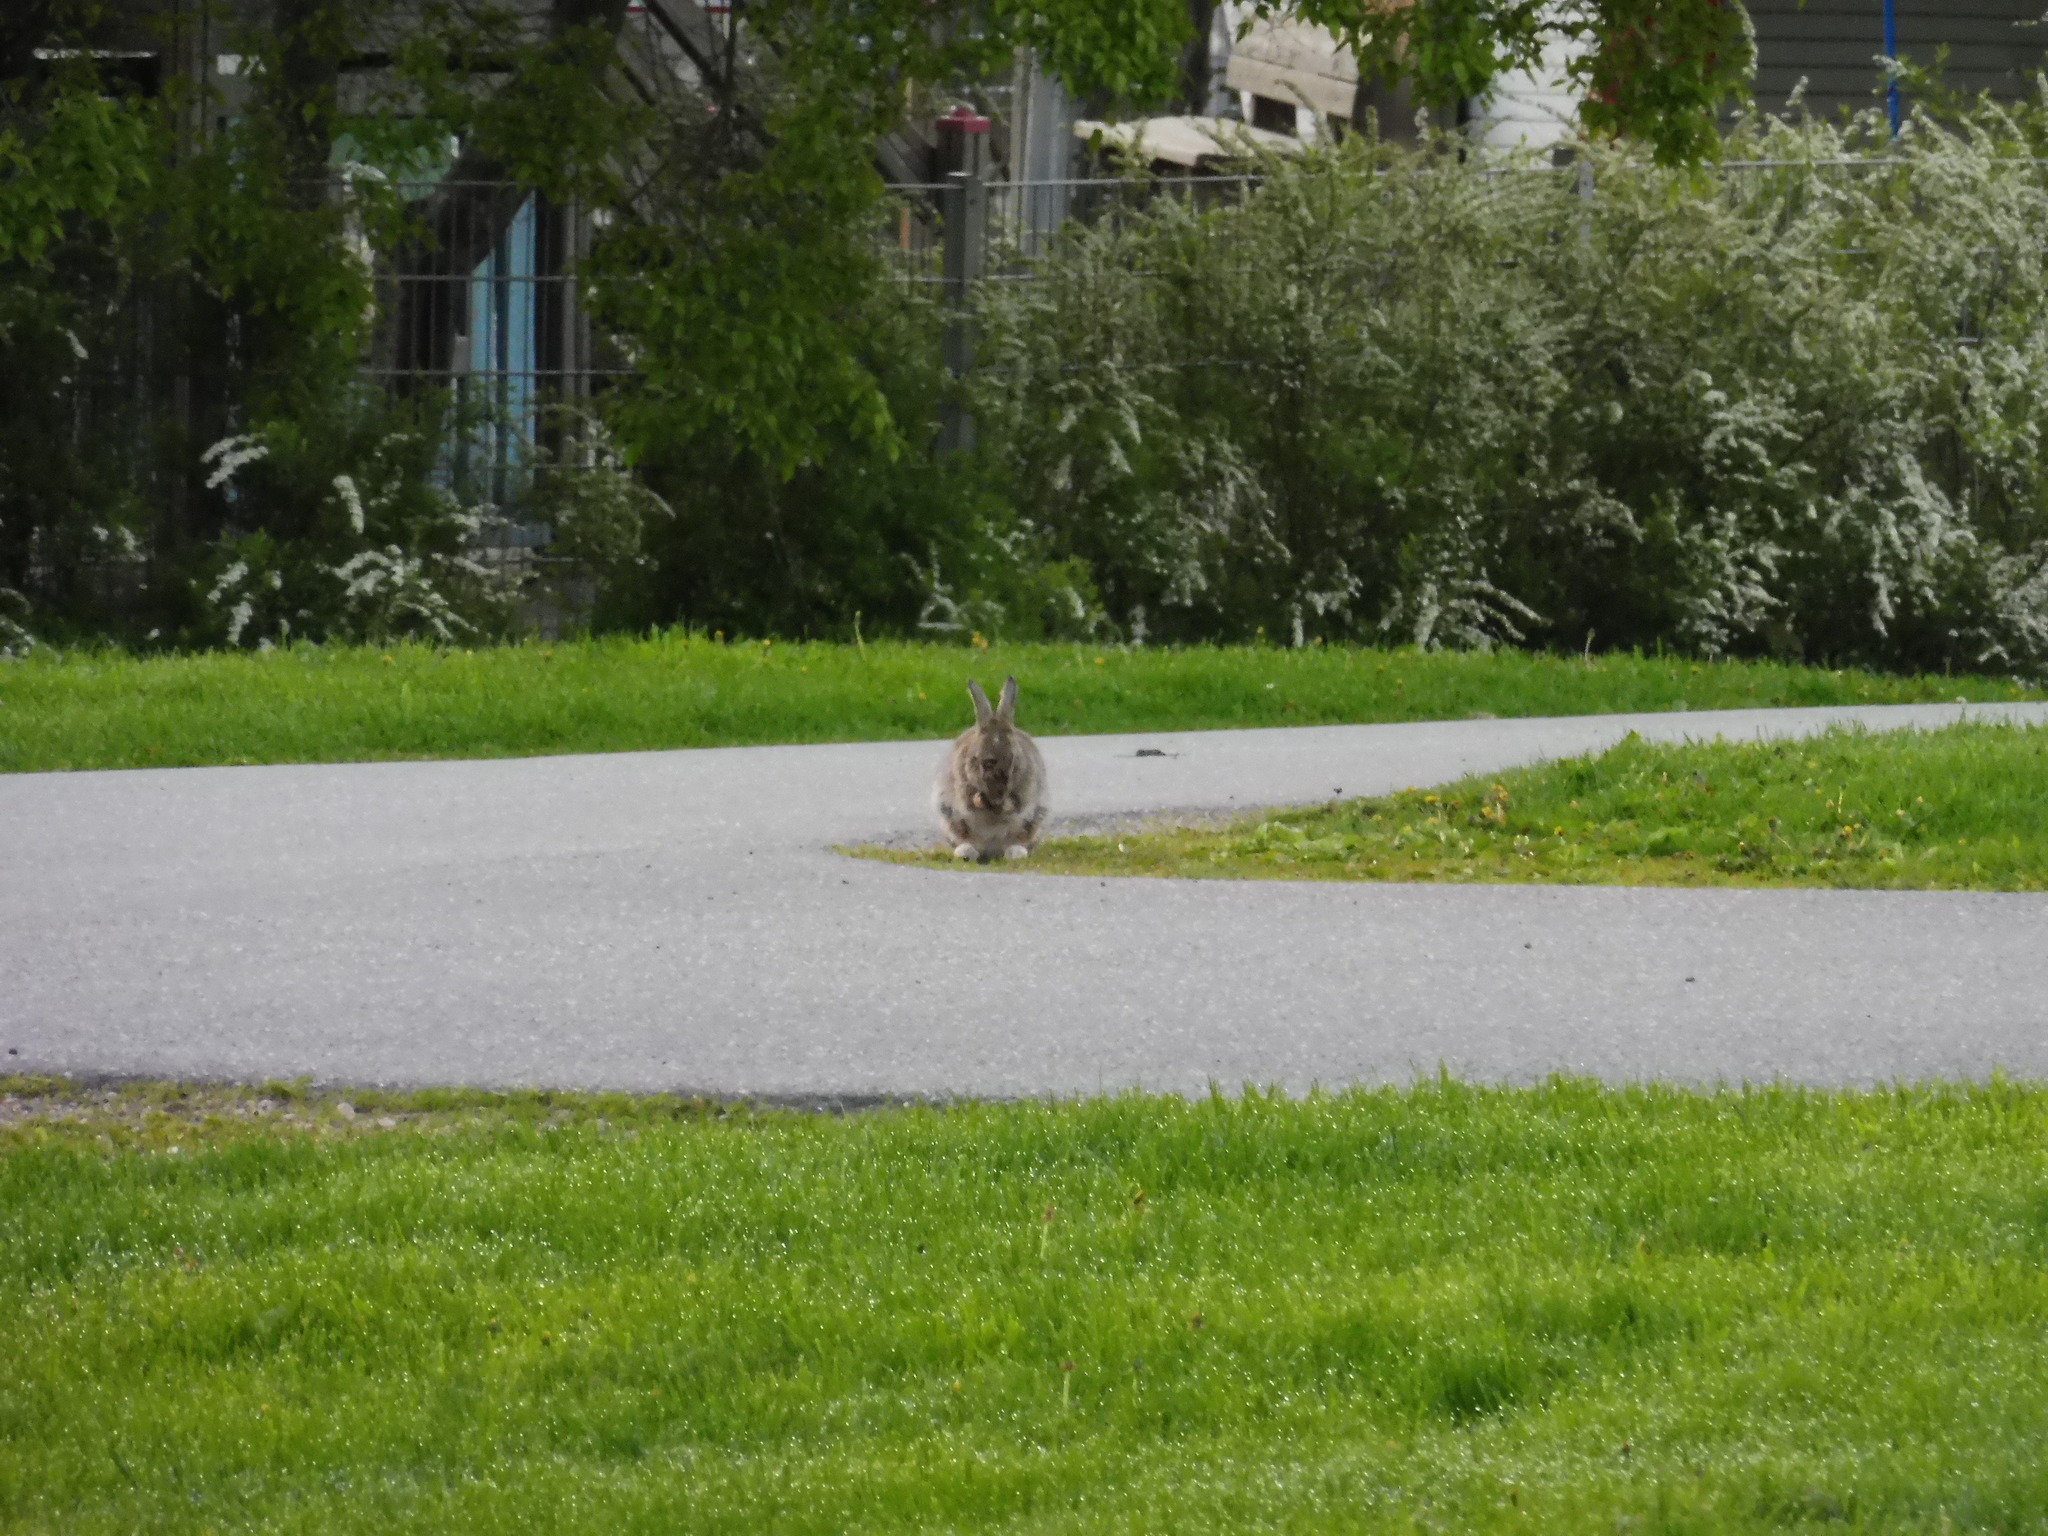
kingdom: Animalia
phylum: Chordata
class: Mammalia
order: Lagomorpha
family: Leporidae
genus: Oryctolagus
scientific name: Oryctolagus cuniculus
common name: European rabbit
